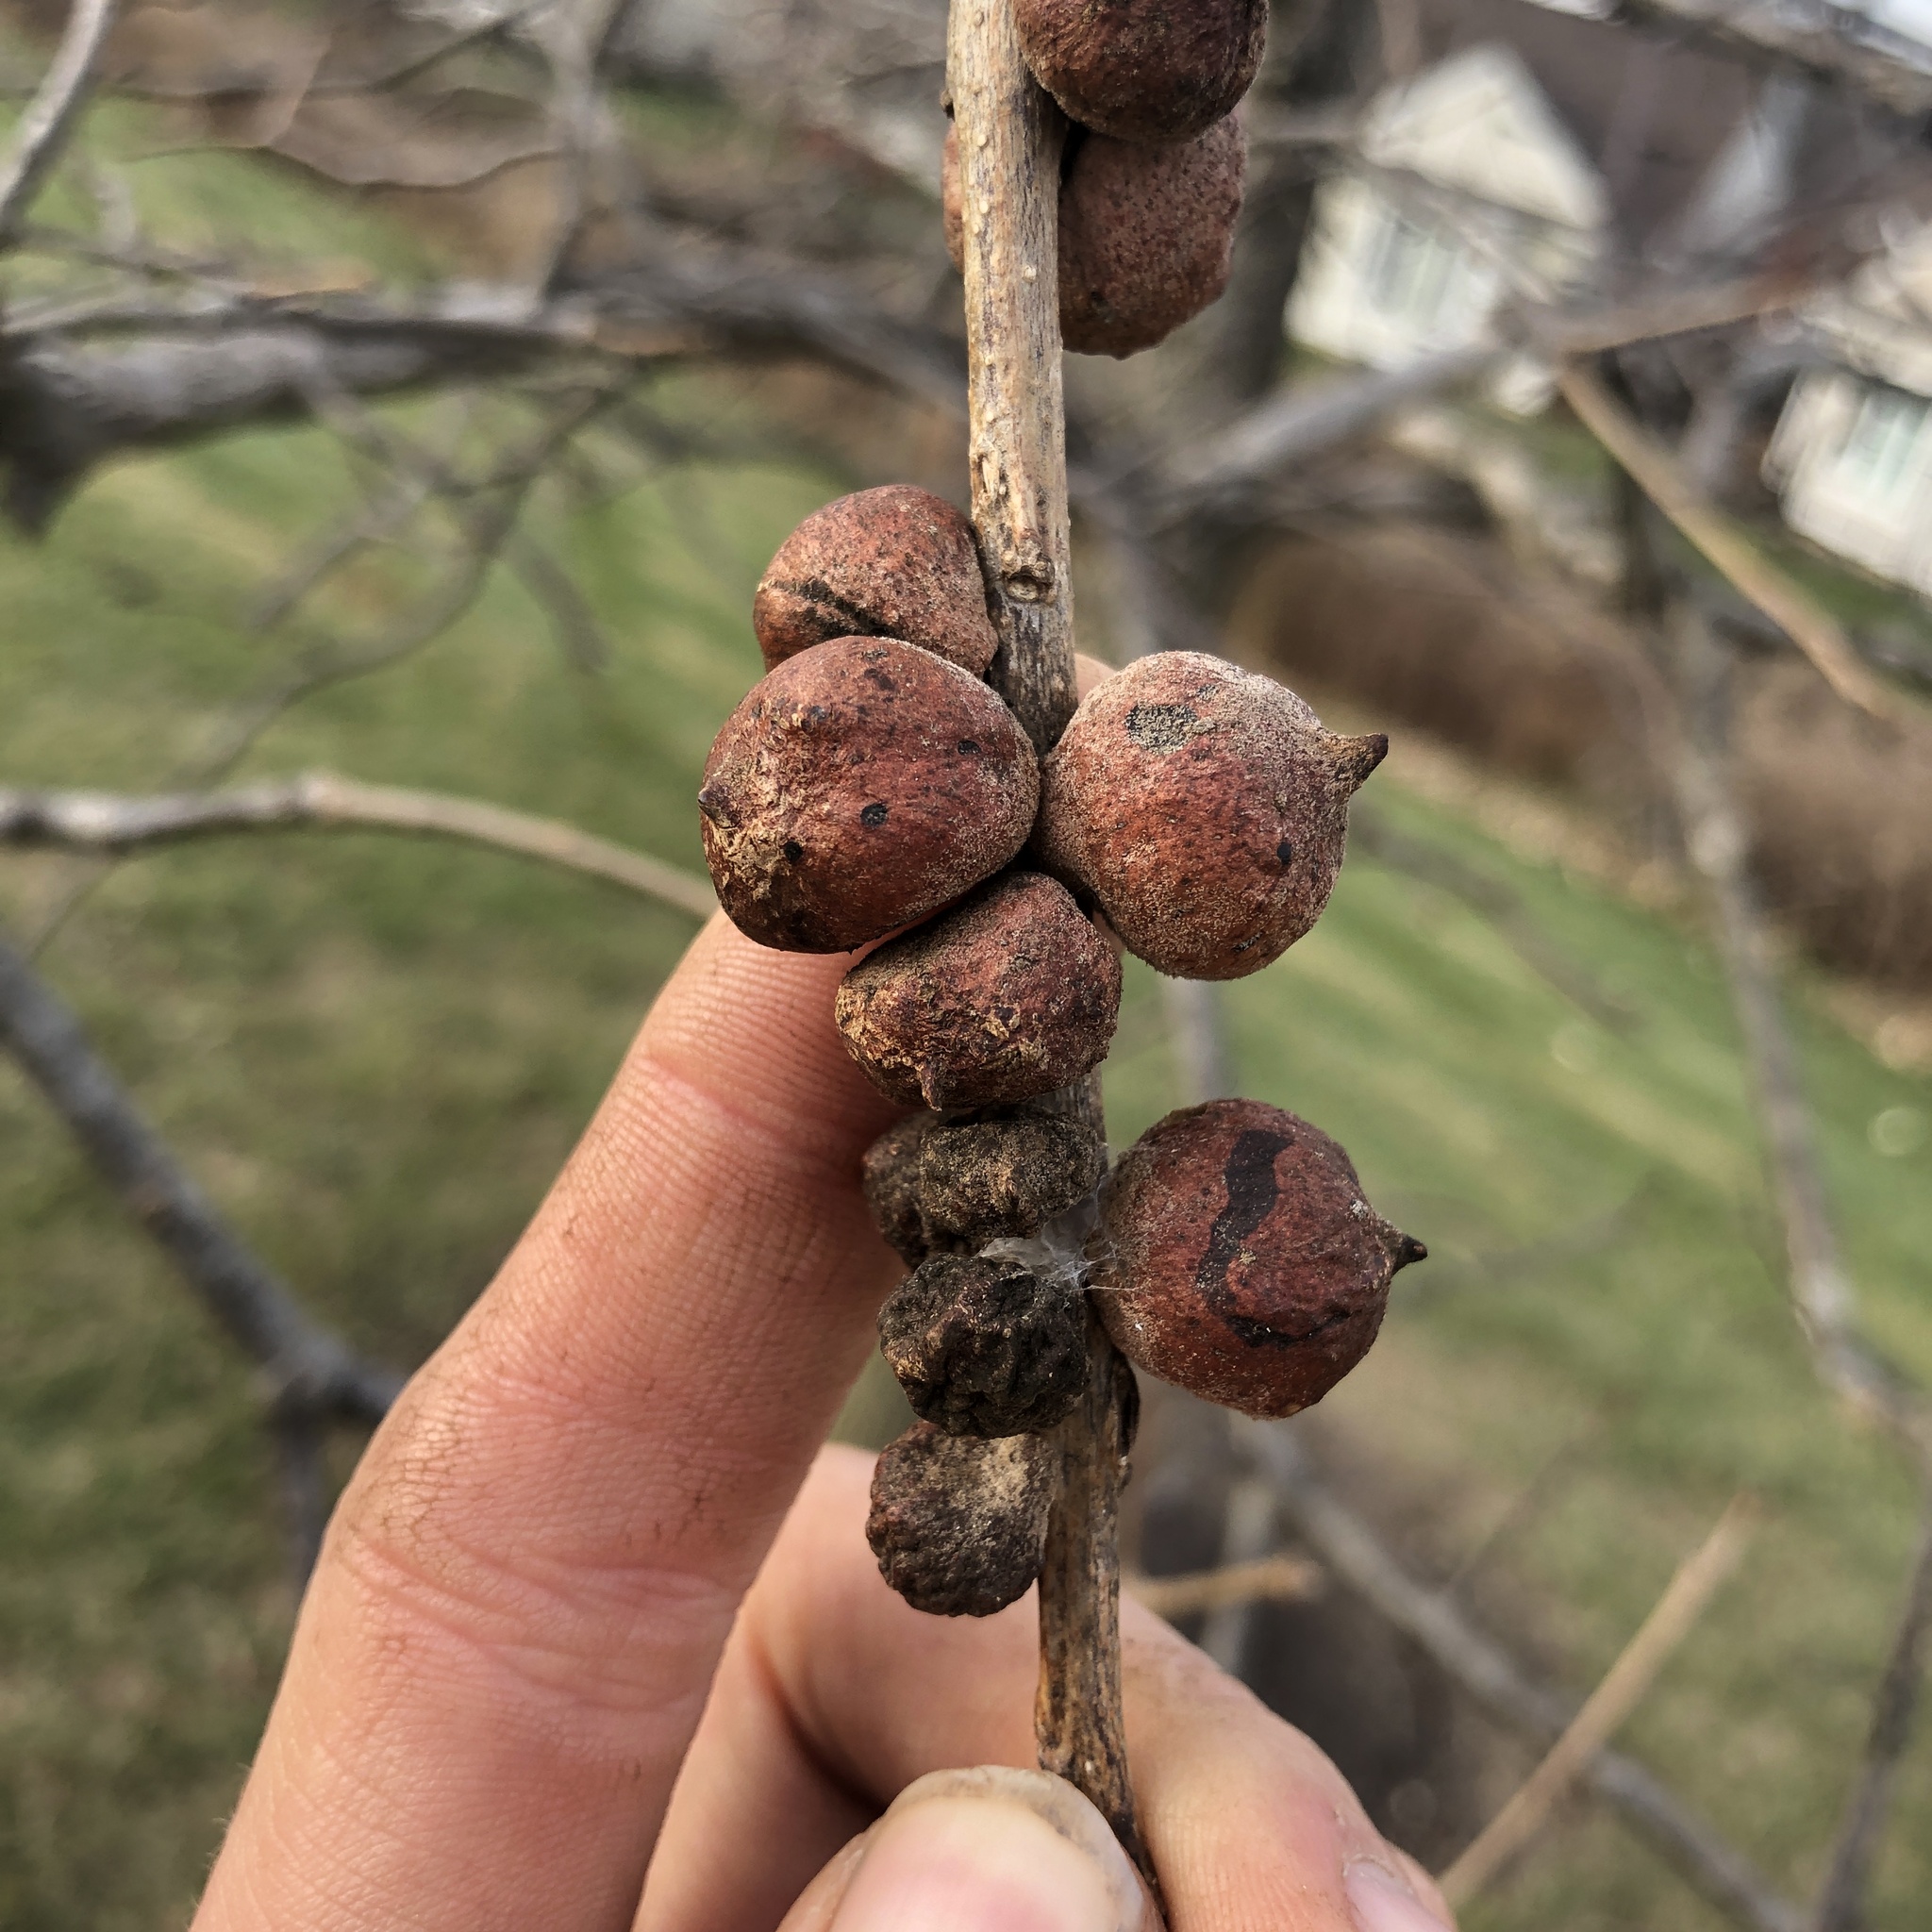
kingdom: Animalia
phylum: Arthropoda
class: Insecta
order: Hymenoptera
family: Cynipidae
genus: Disholcaspis
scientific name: Disholcaspis
